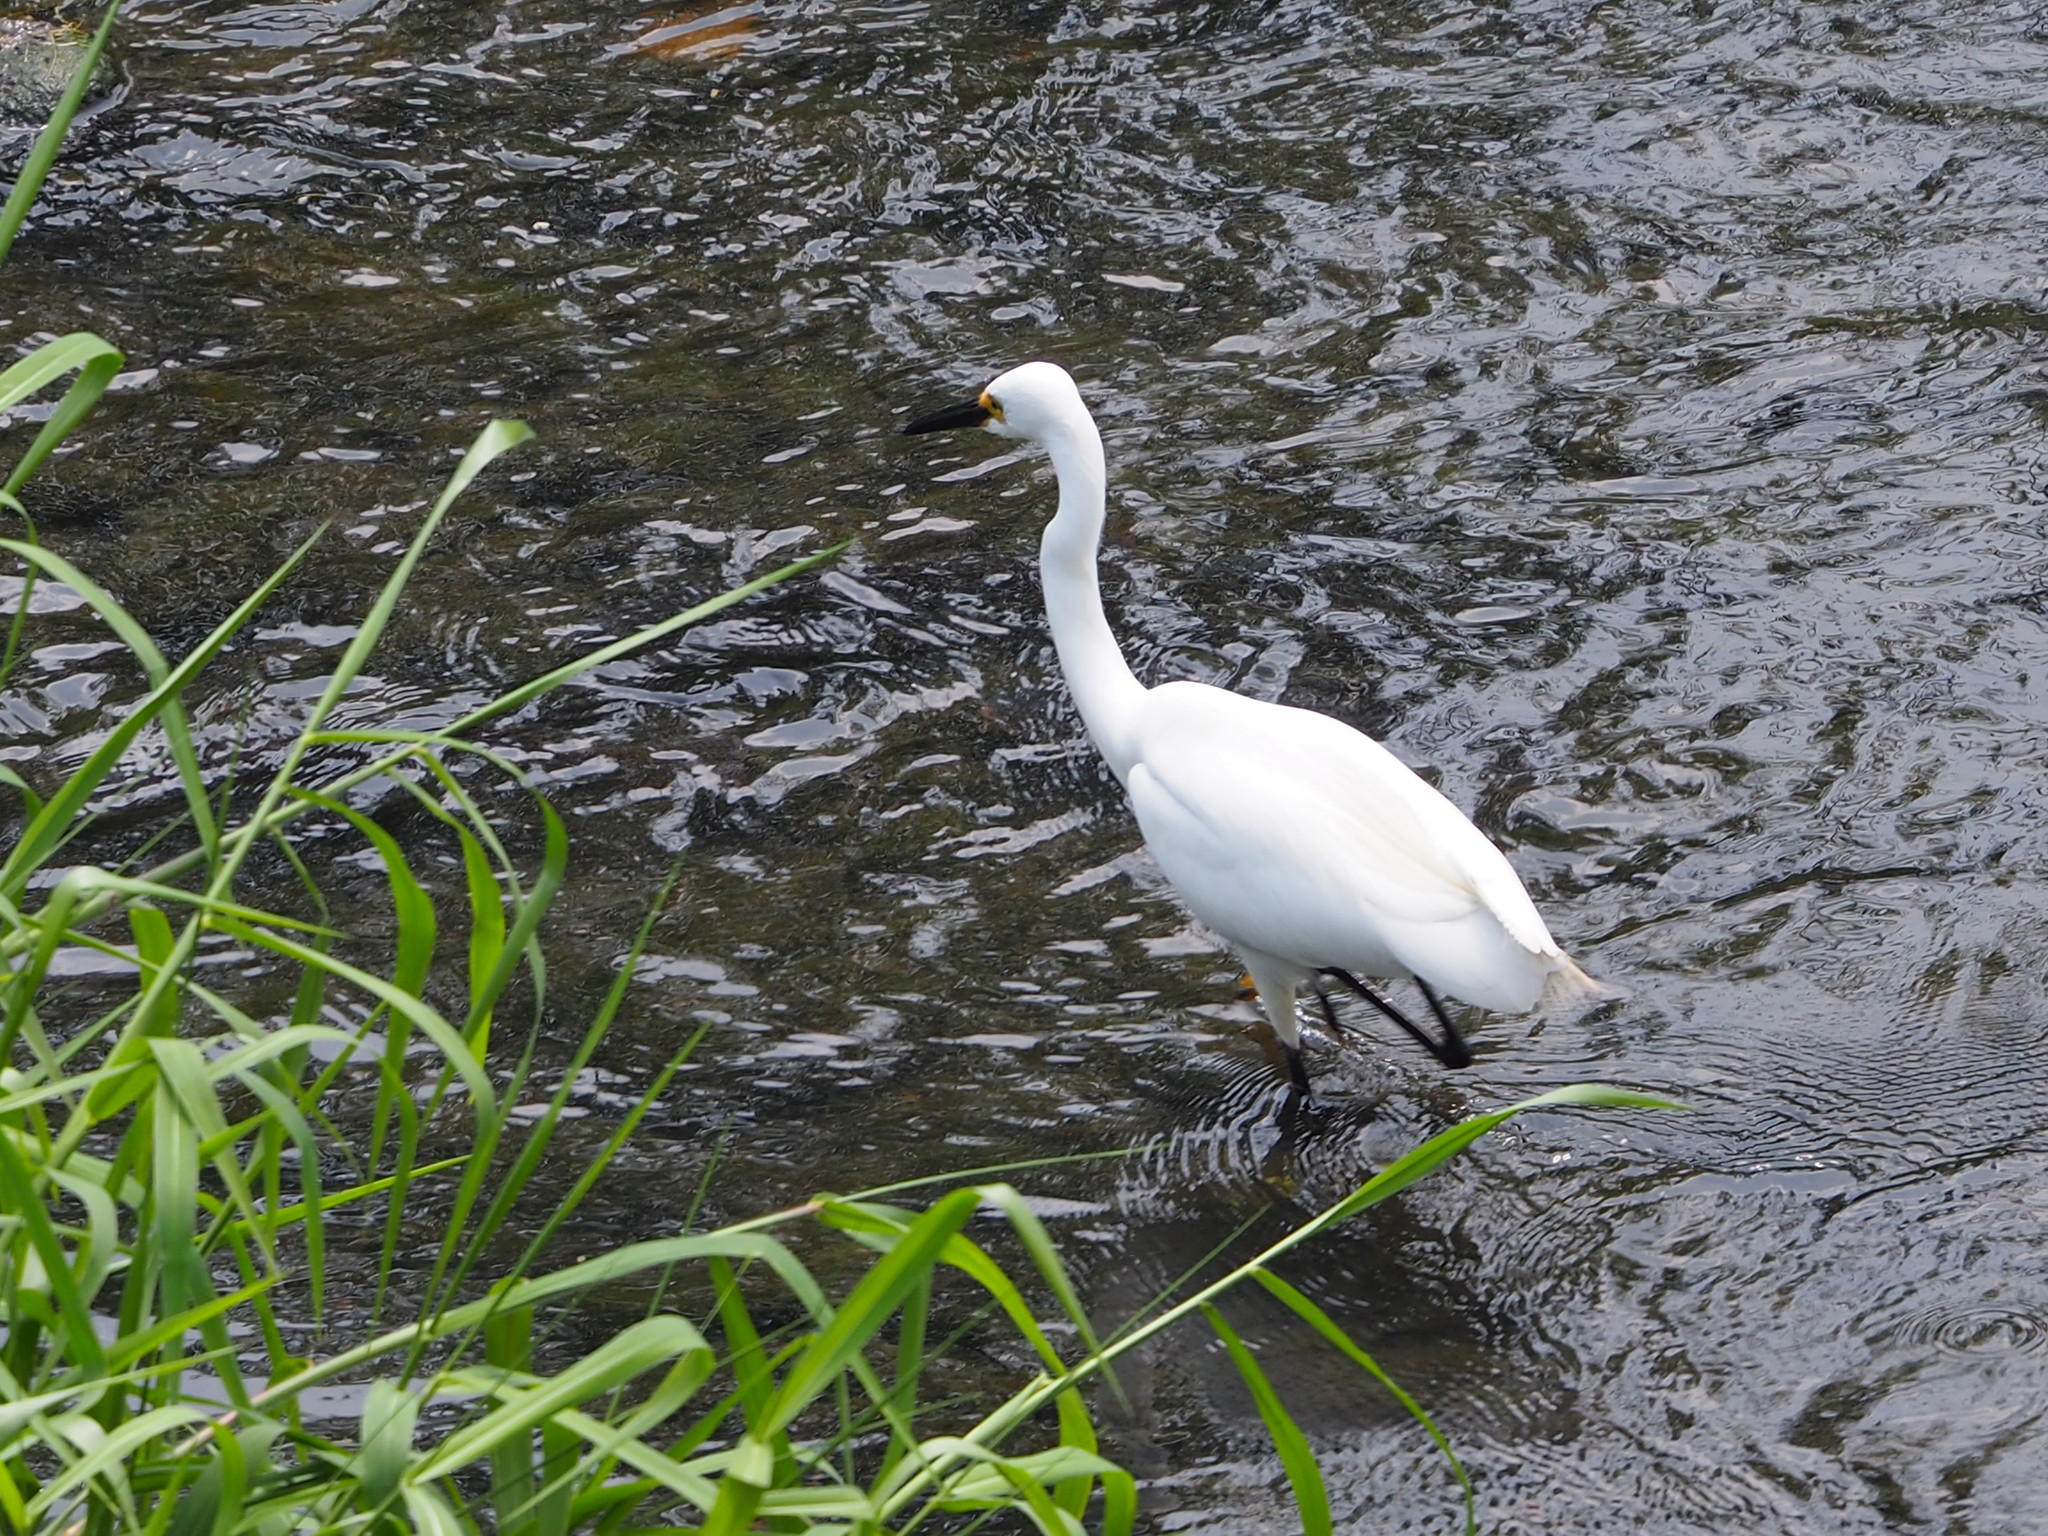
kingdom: Animalia
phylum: Chordata
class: Aves
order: Pelecaniformes
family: Ardeidae
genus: Egretta
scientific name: Egretta garzetta
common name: Little egret
